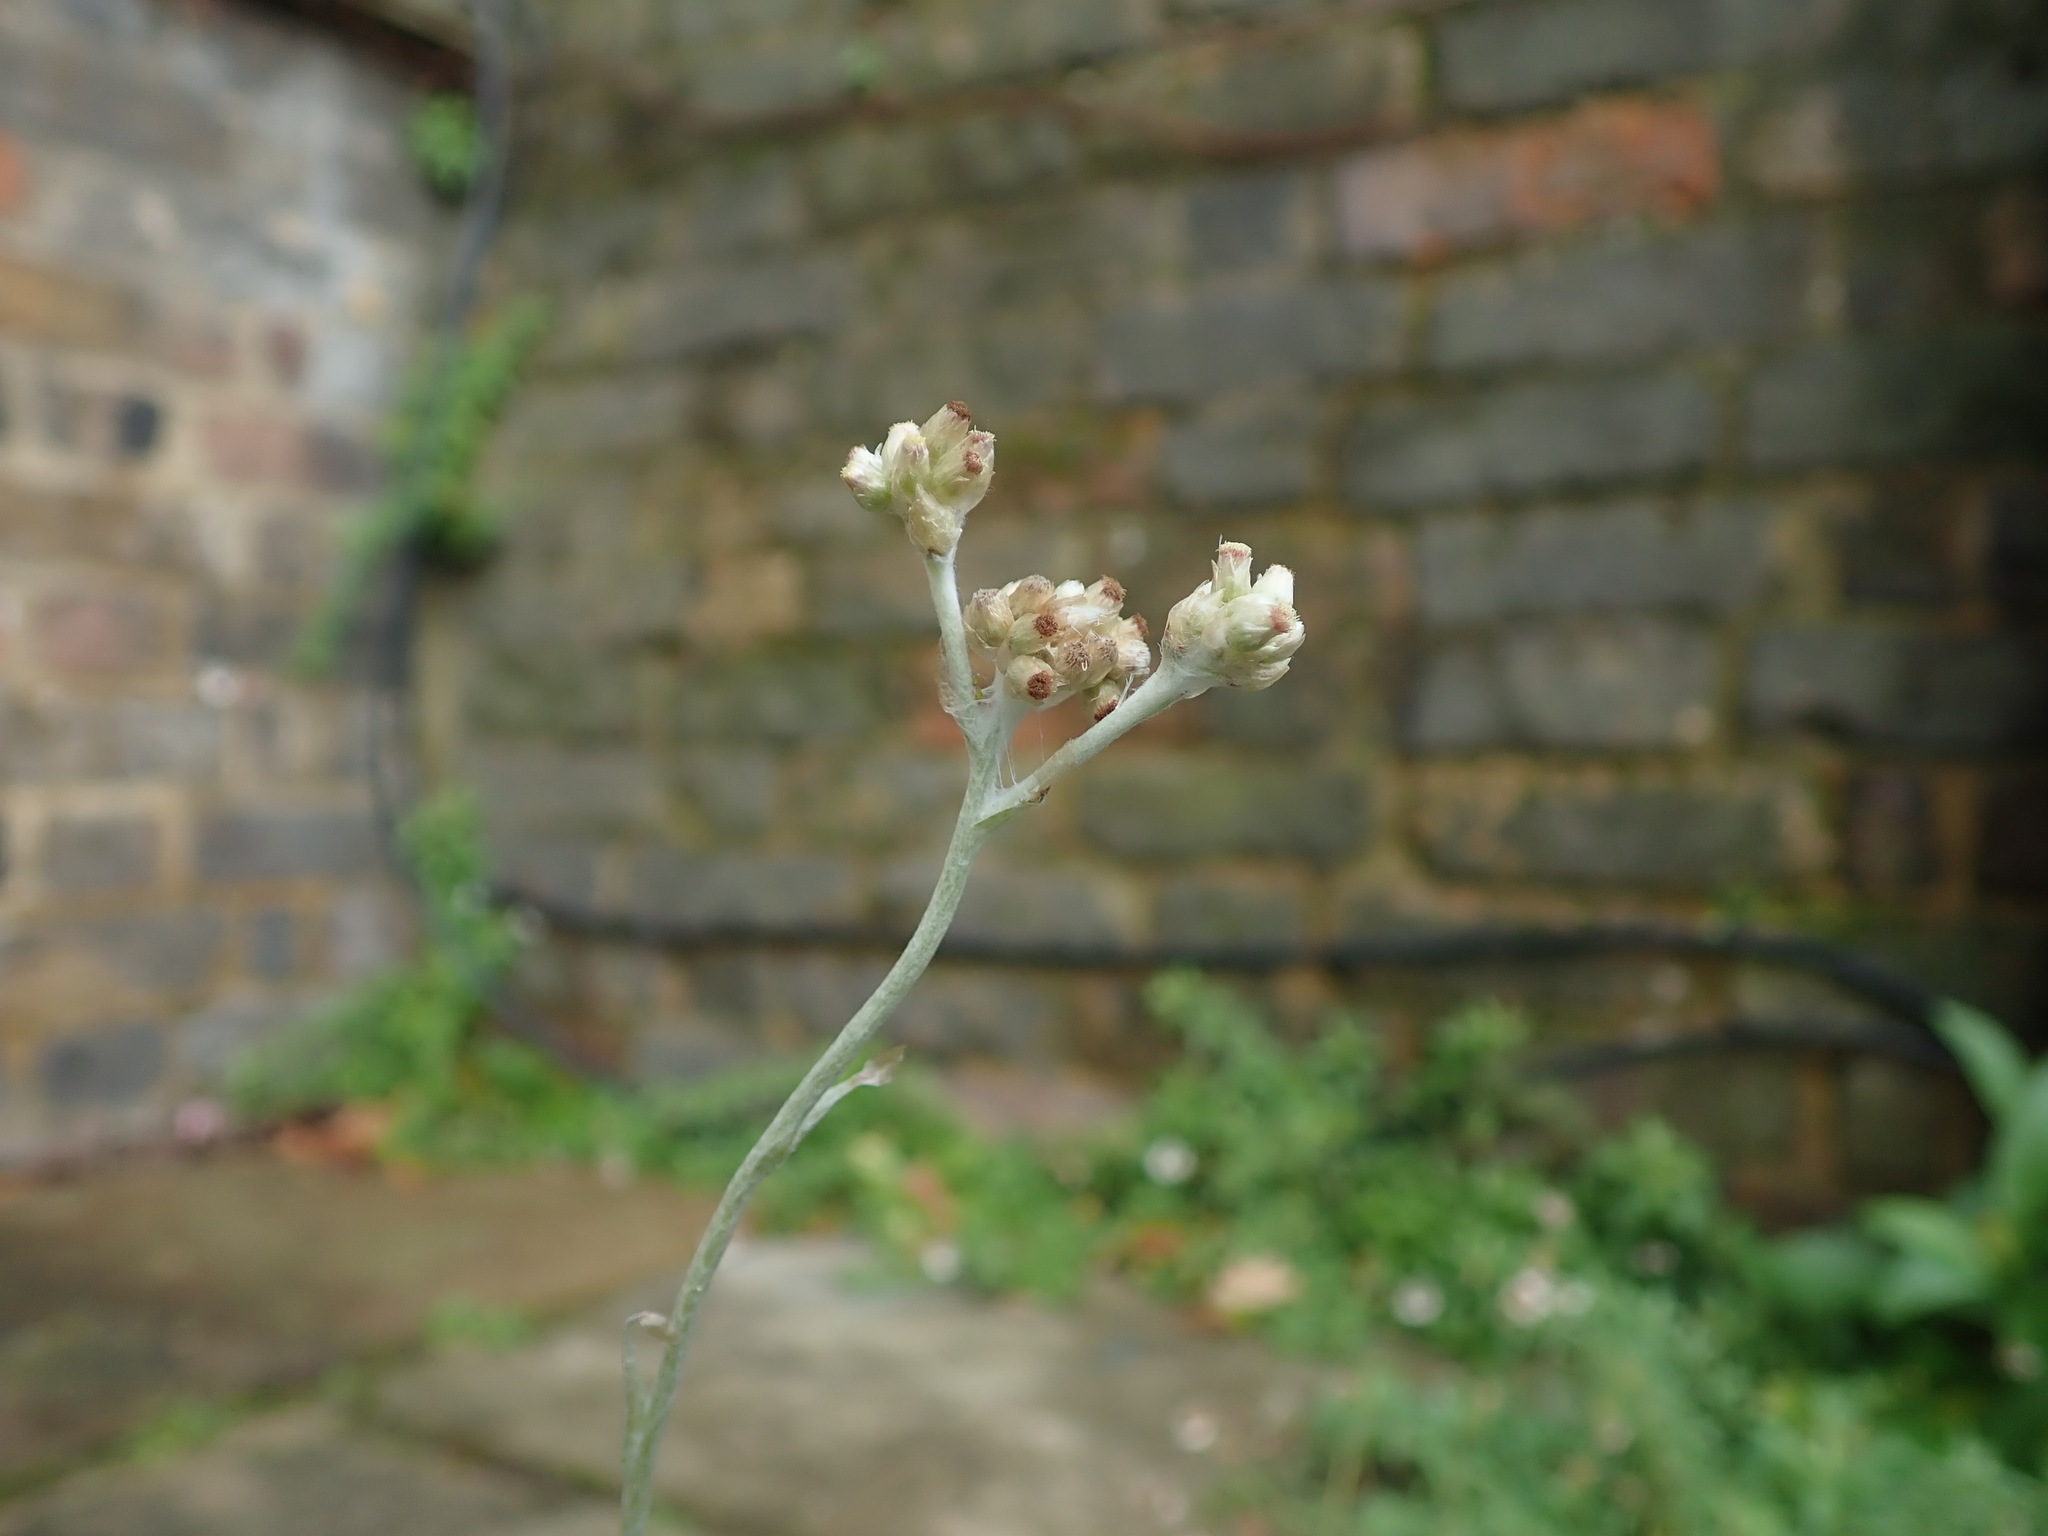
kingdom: Plantae
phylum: Tracheophyta
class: Magnoliopsida
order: Asterales
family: Asteraceae
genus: Helichrysum
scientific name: Helichrysum luteoalbum
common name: Daisy
